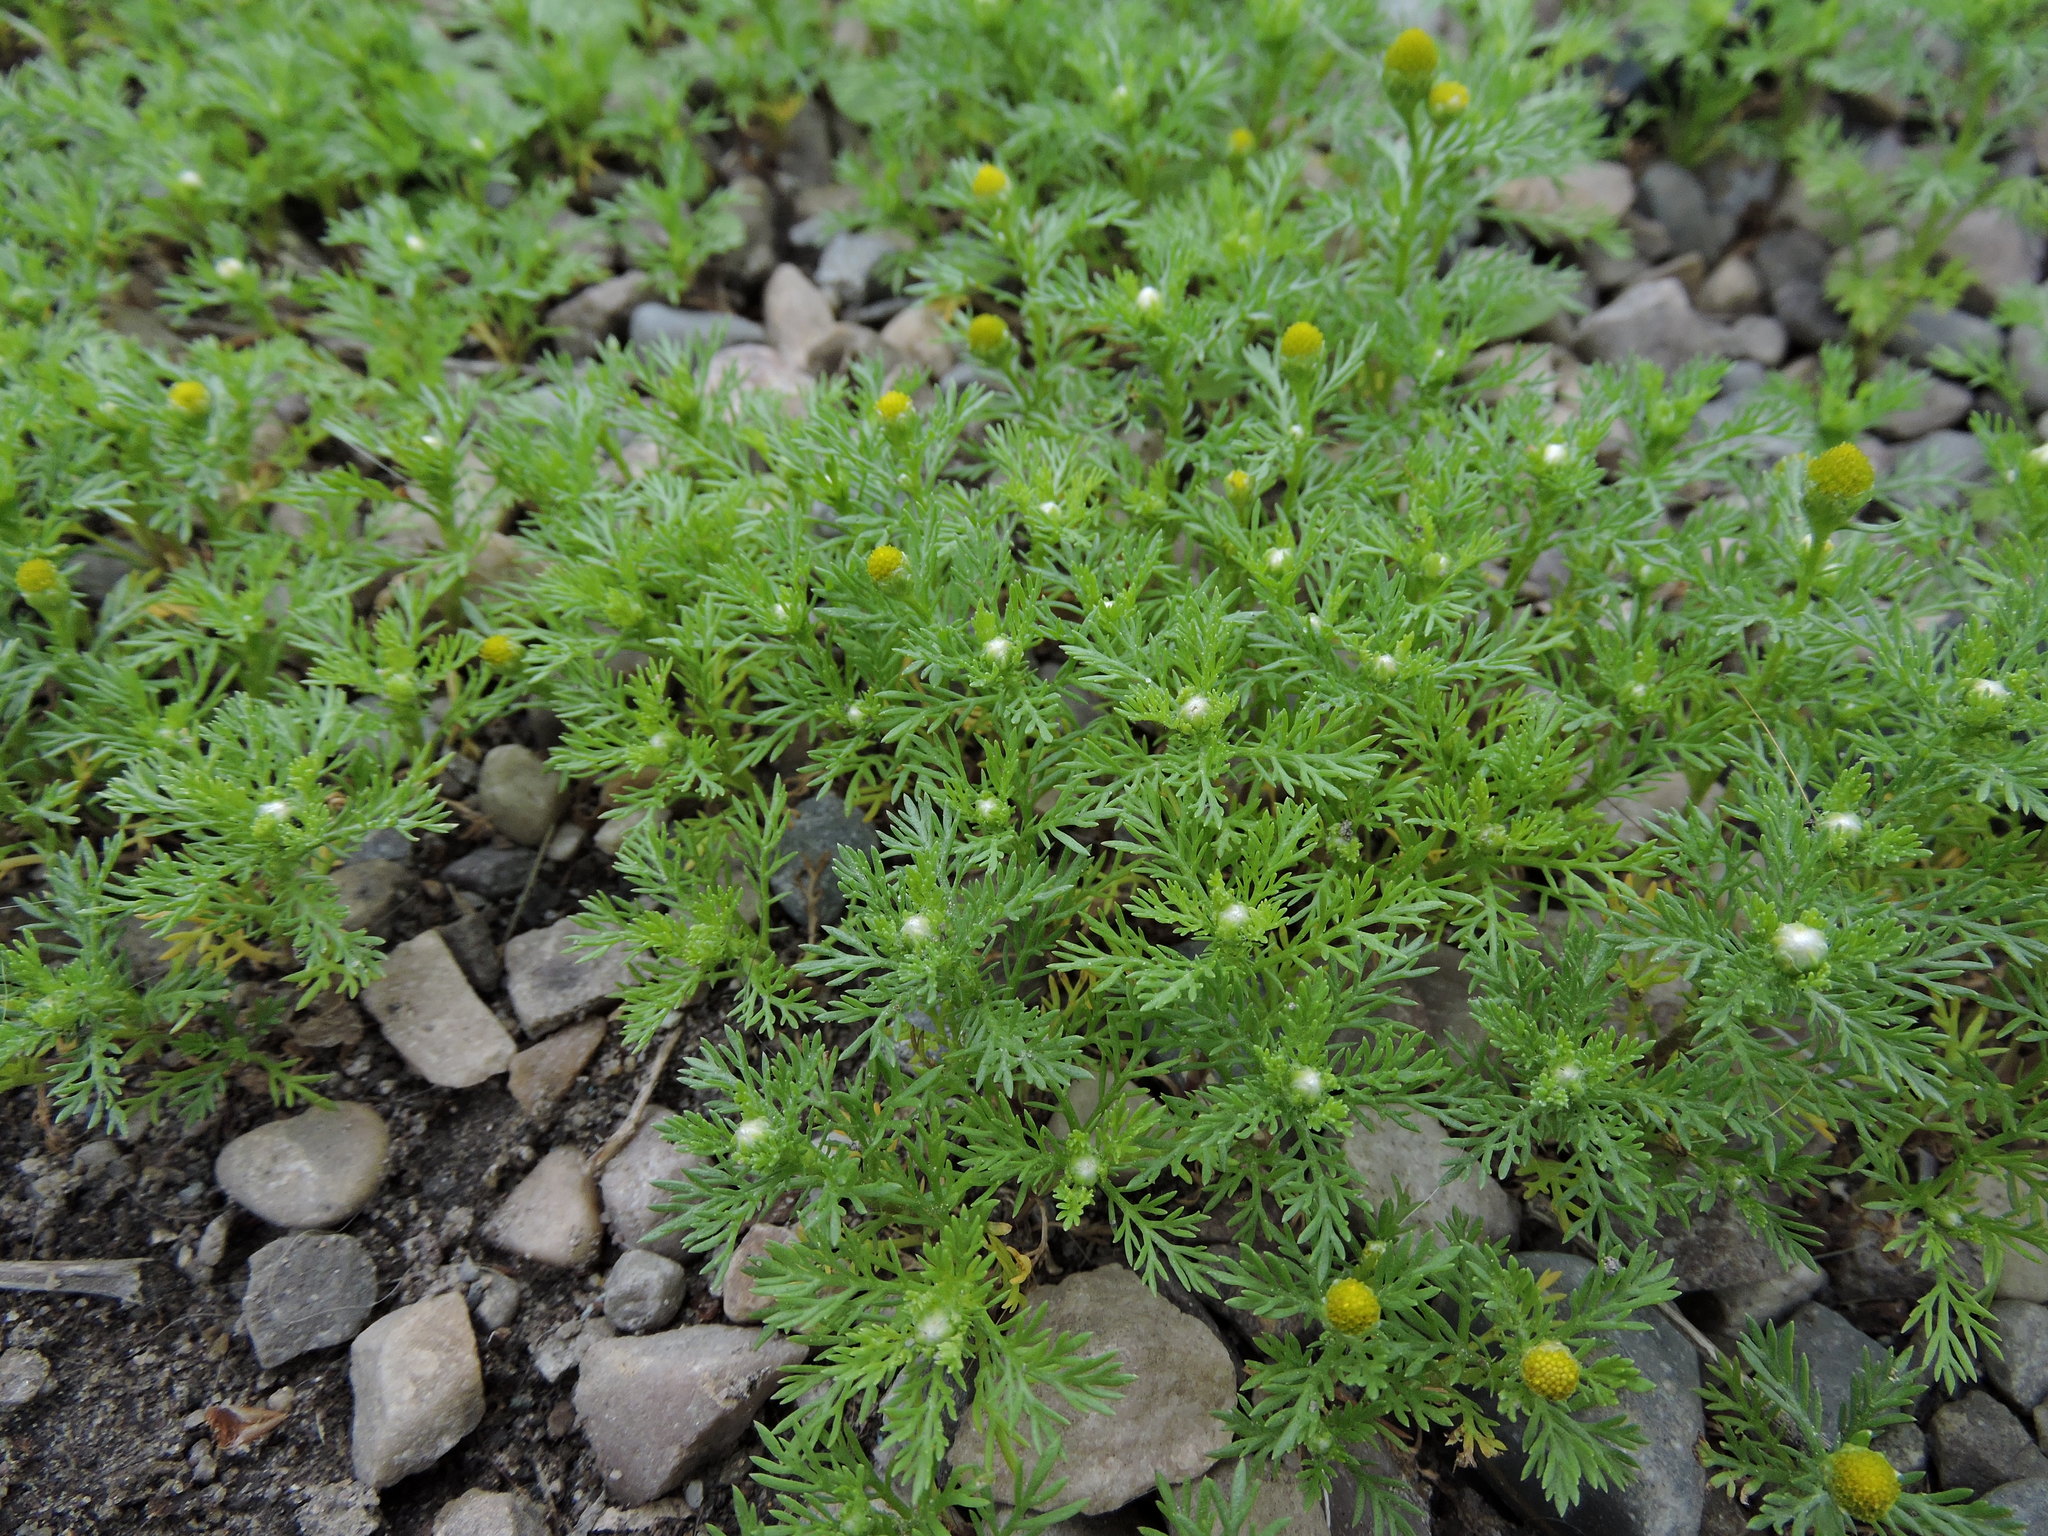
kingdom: Plantae
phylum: Tracheophyta
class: Magnoliopsida
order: Asterales
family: Asteraceae
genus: Matricaria
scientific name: Matricaria discoidea
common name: Disc mayweed
